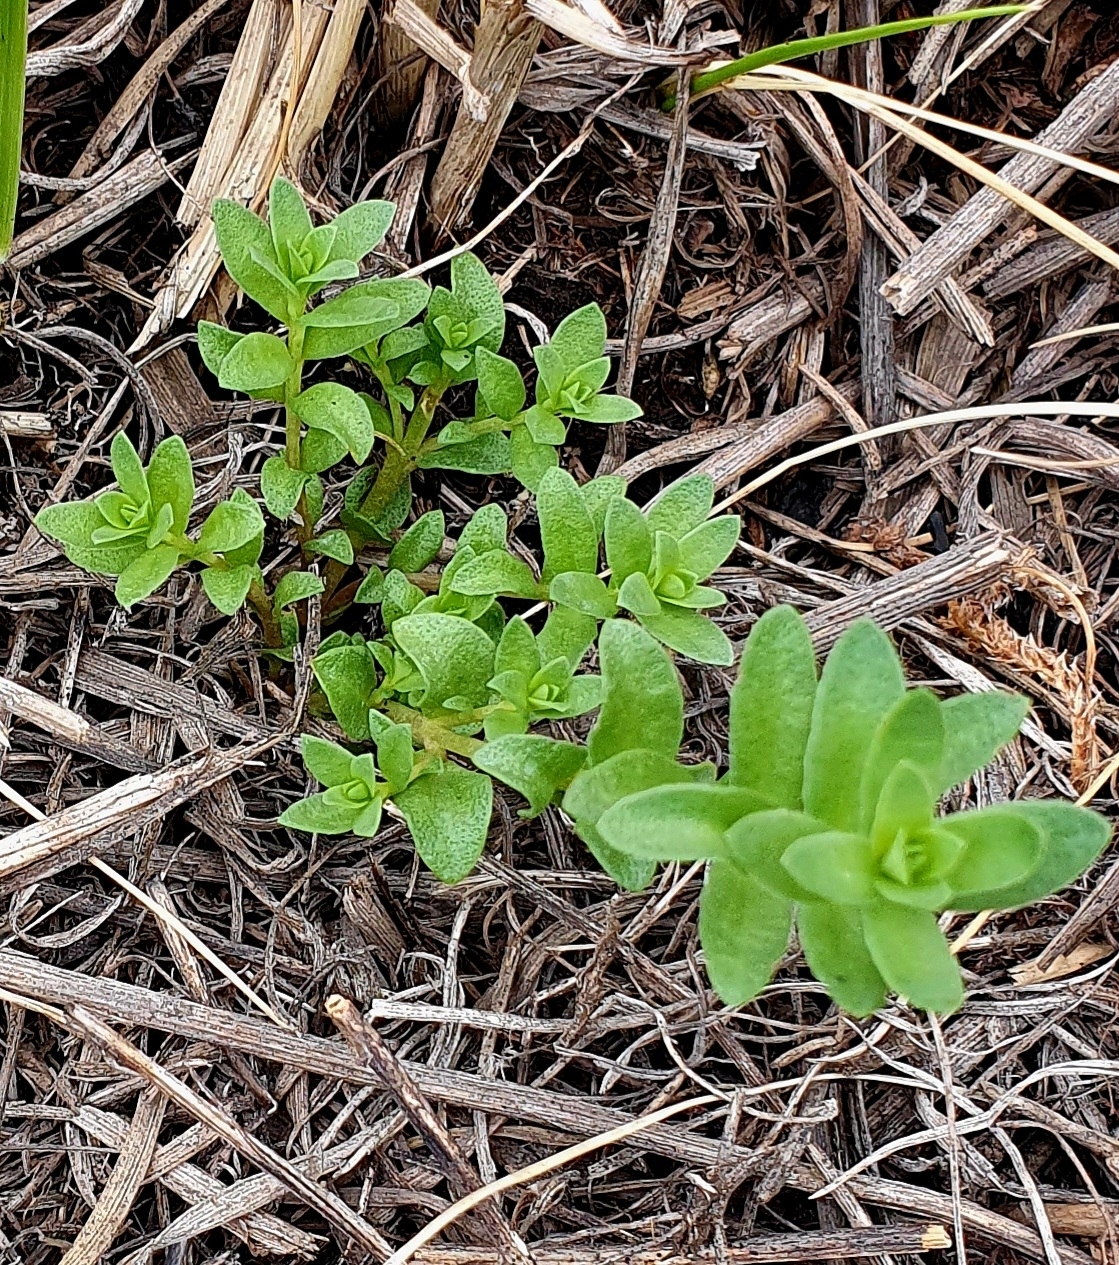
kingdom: Plantae
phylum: Tracheophyta
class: Magnoliopsida
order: Ericales
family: Primulaceae
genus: Lysimachia
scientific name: Lysimachia maritima
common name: Sea milkwort
